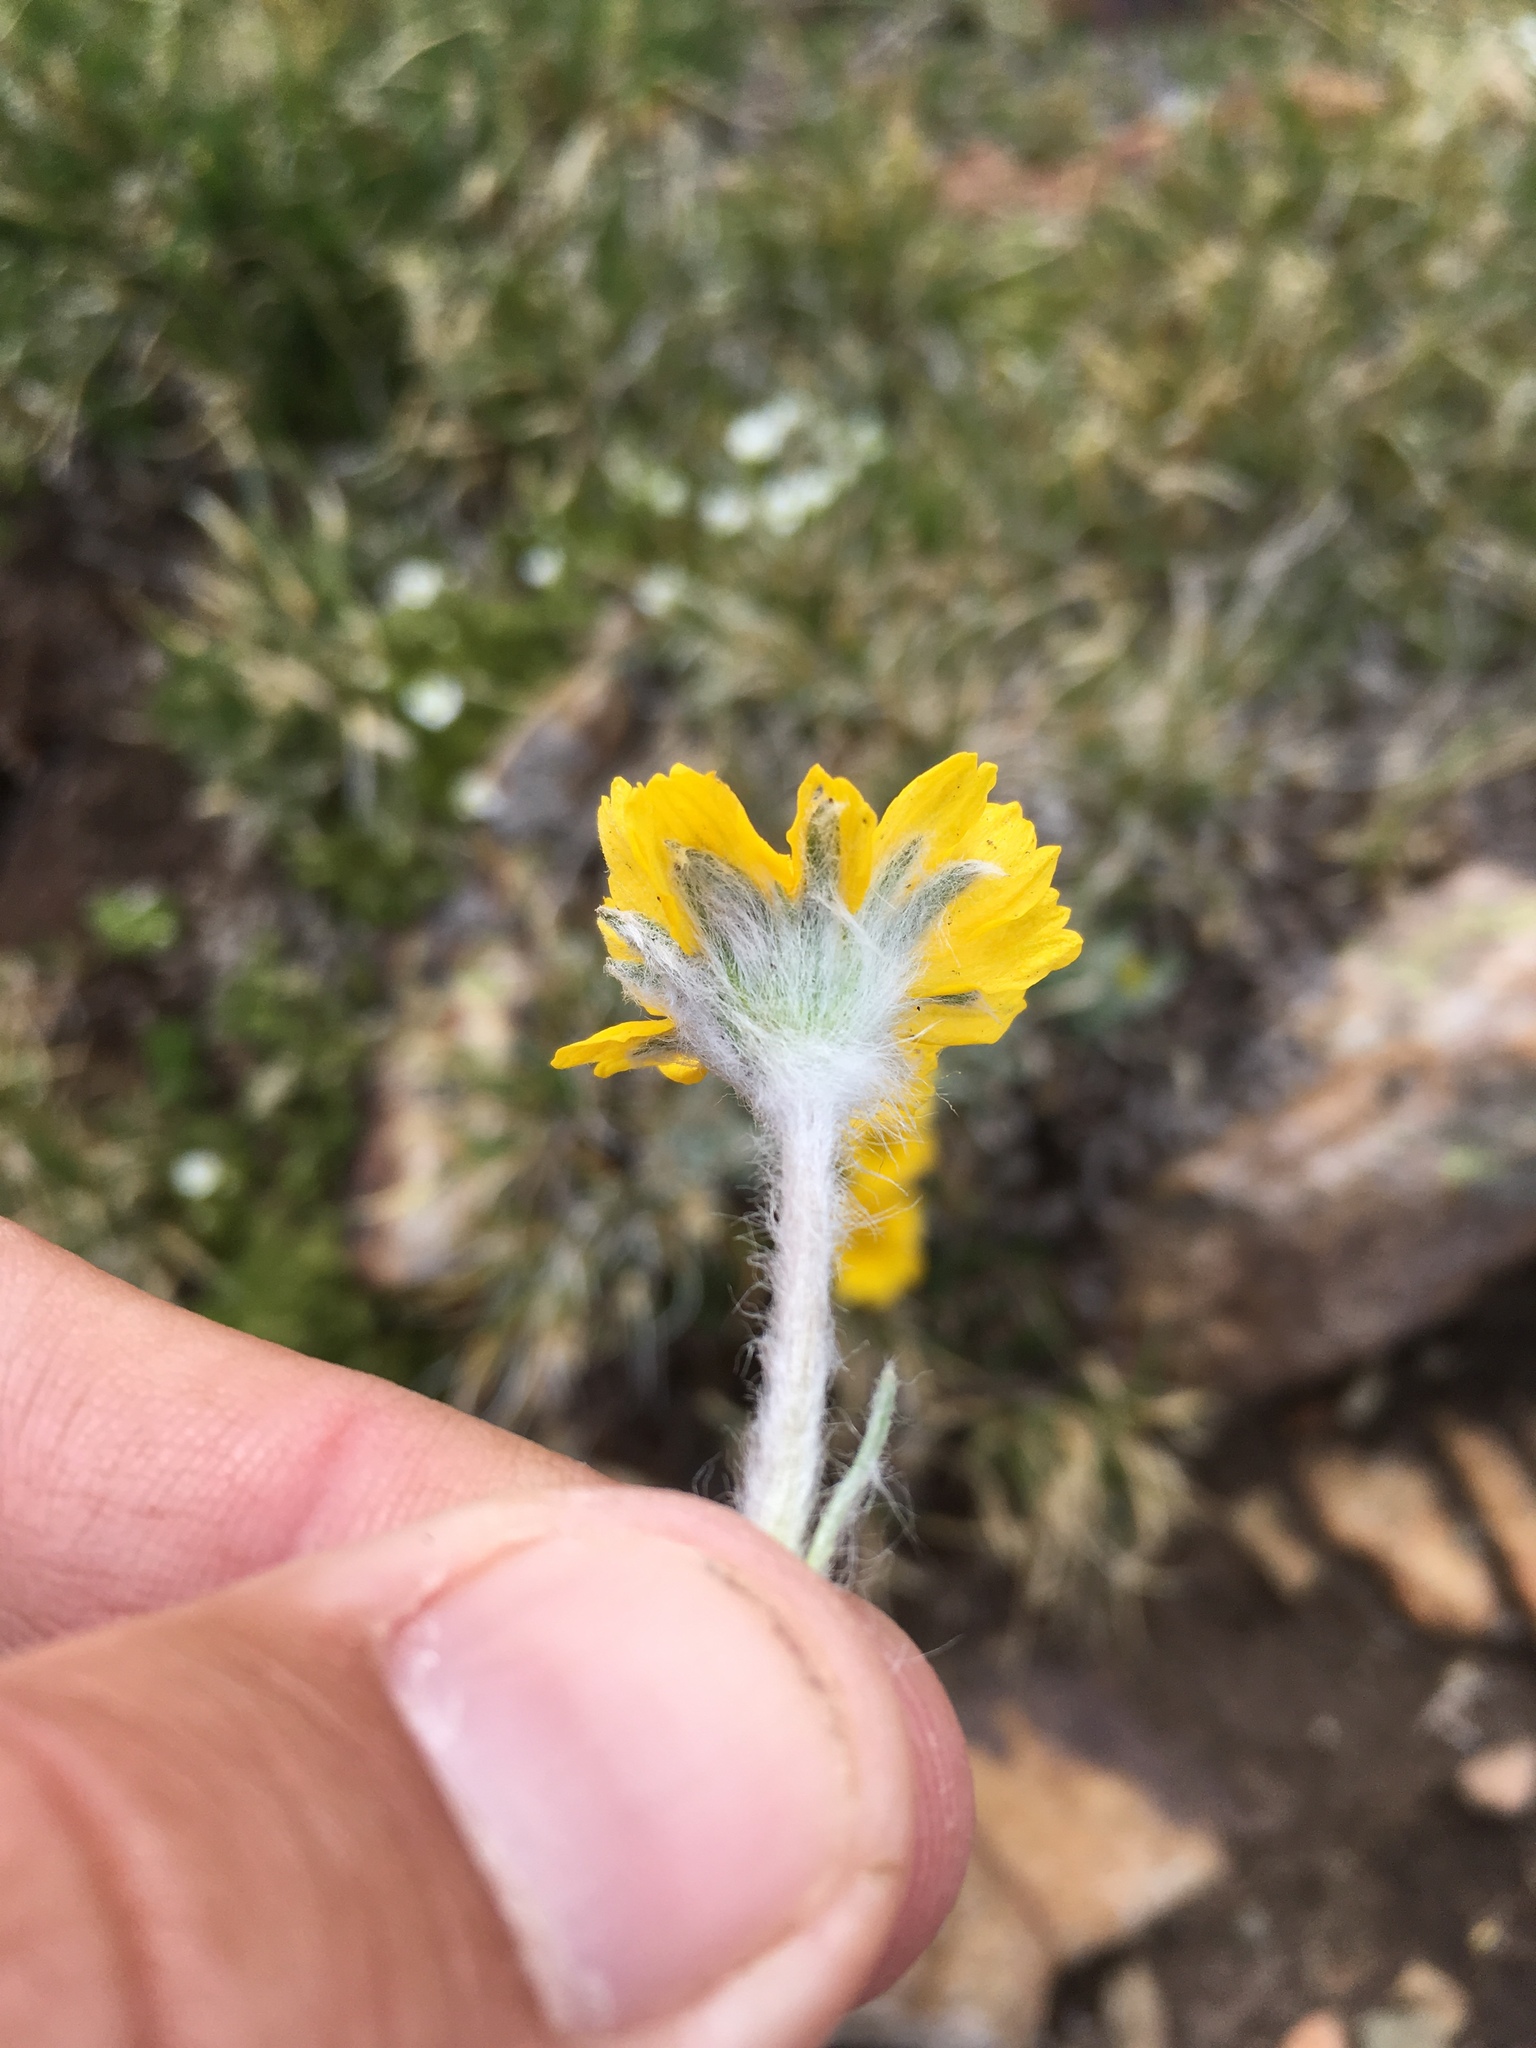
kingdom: Plantae
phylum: Tracheophyta
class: Magnoliopsida
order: Asterales
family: Asteraceae
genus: Tetraneuris
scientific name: Tetraneuris acaulis
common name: Butte marigold
